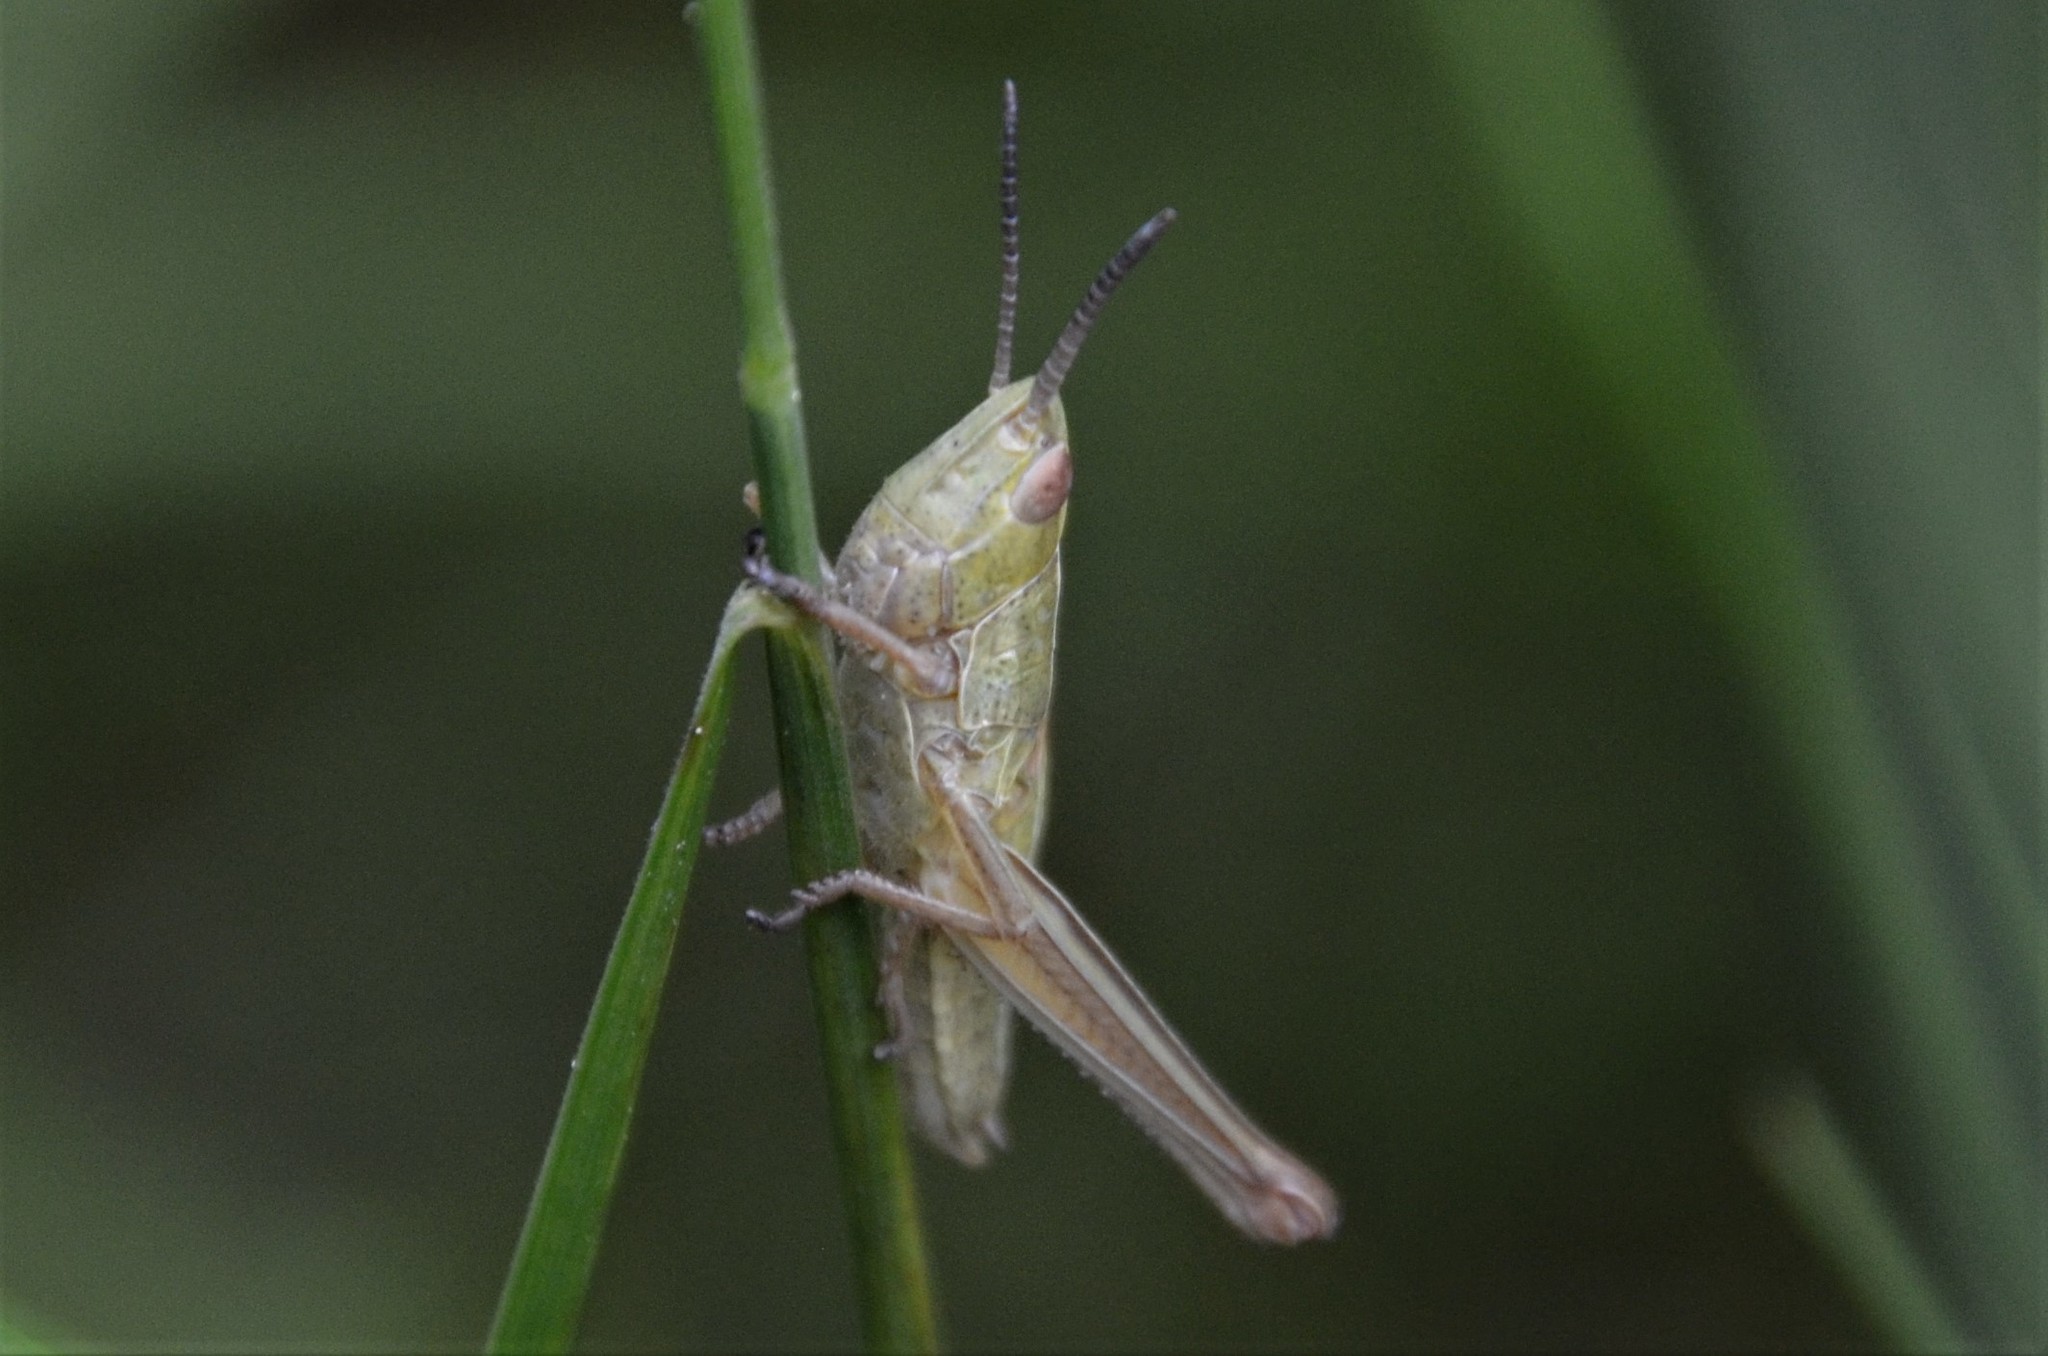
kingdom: Animalia
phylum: Arthropoda
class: Insecta
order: Orthoptera
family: Acrididae
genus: Euthystira
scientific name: Euthystira brachyptera
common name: Small gold grasshopper
